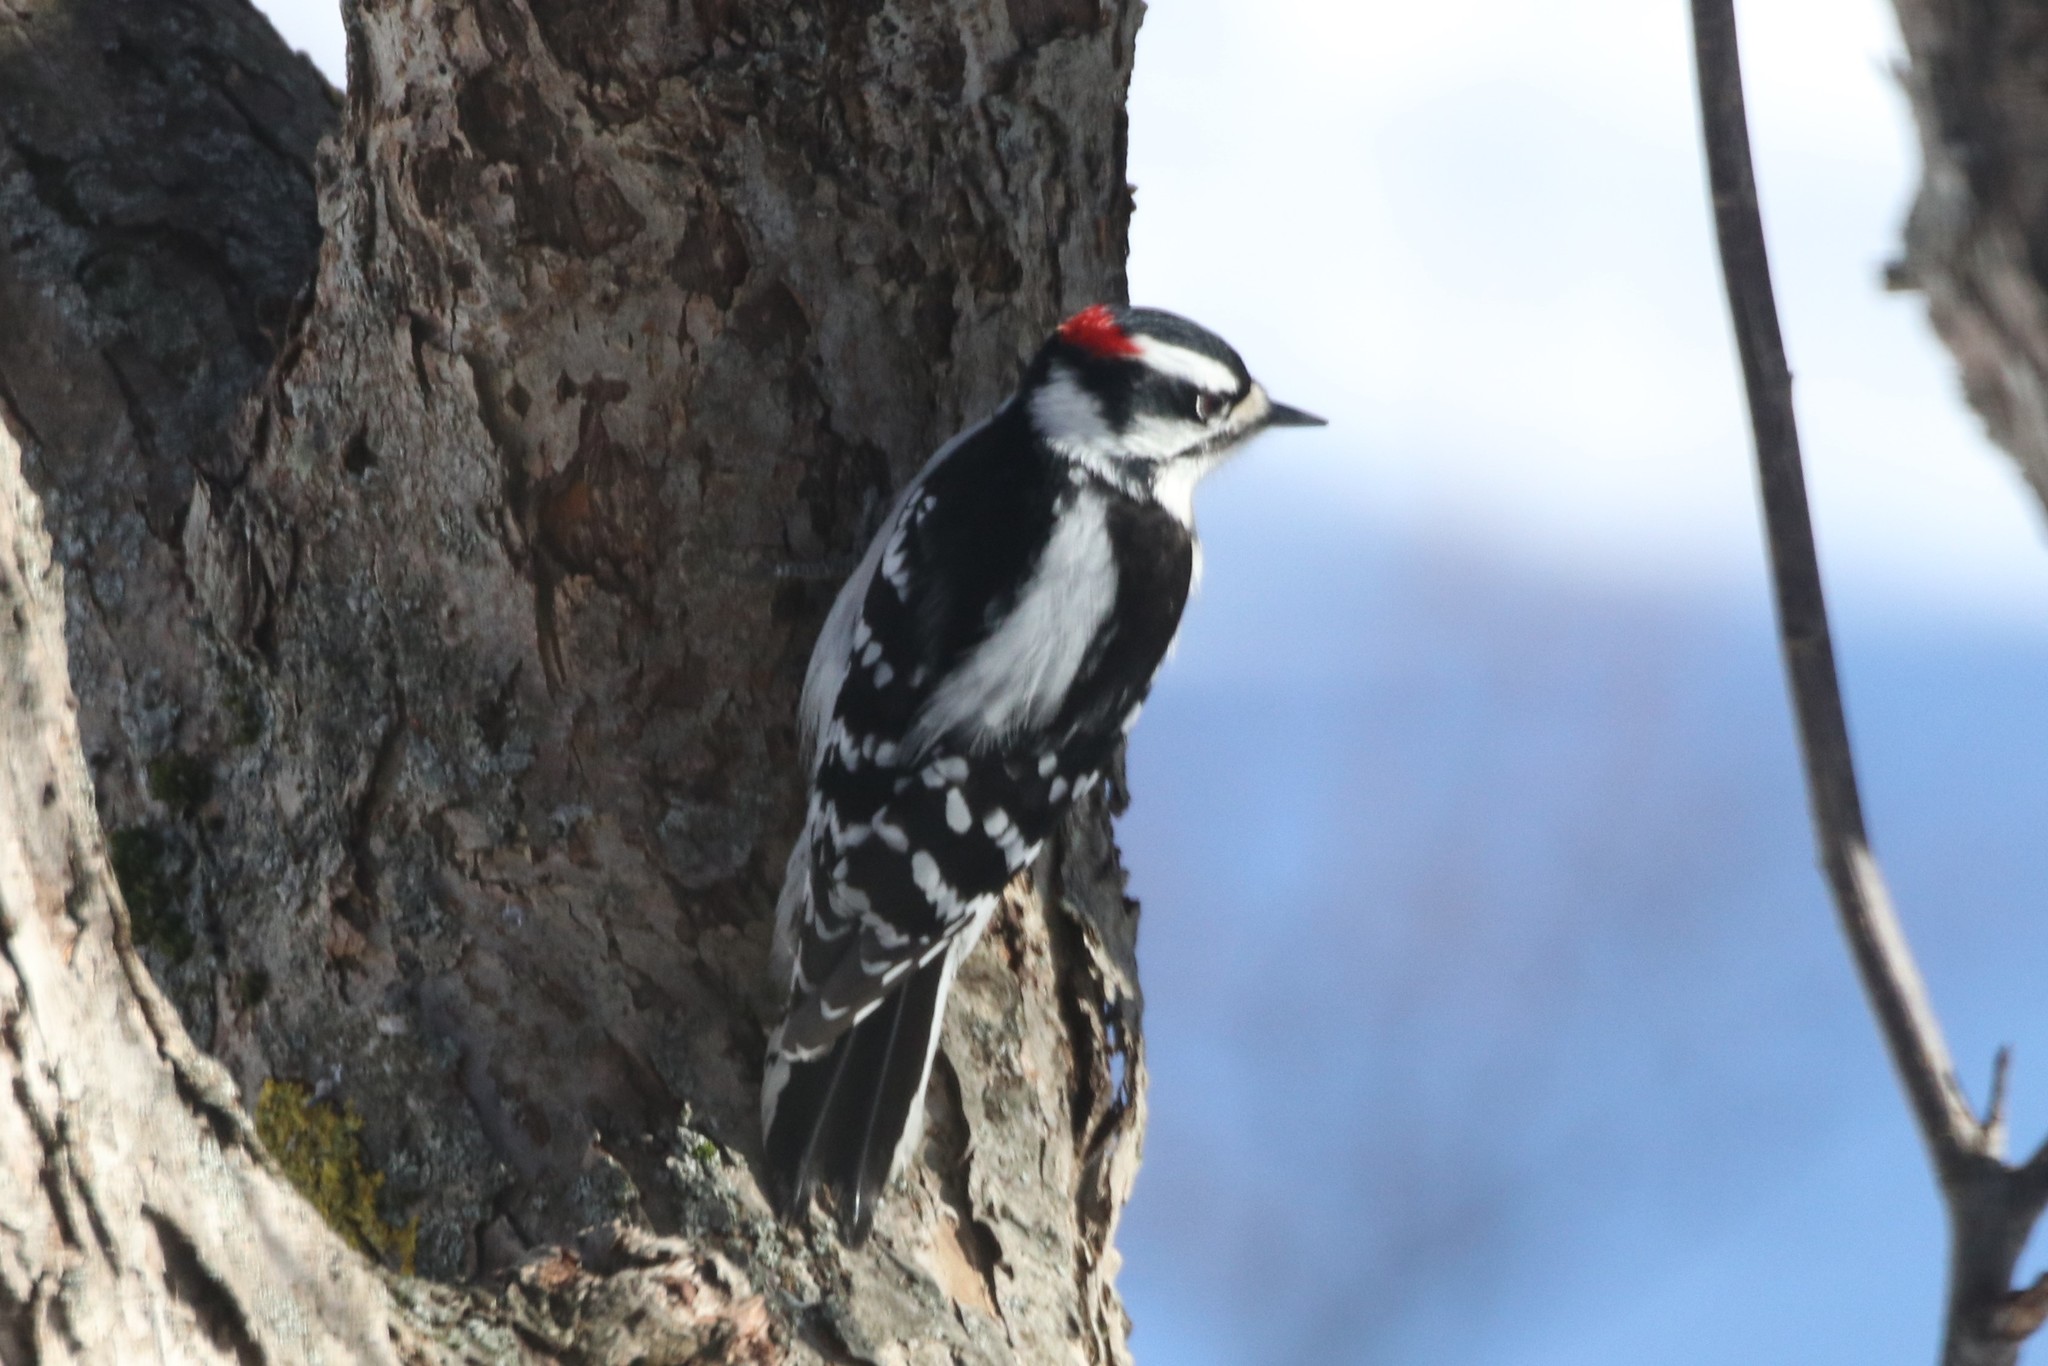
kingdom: Animalia
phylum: Chordata
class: Aves
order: Piciformes
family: Picidae
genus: Dryobates
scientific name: Dryobates pubescens
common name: Downy woodpecker
